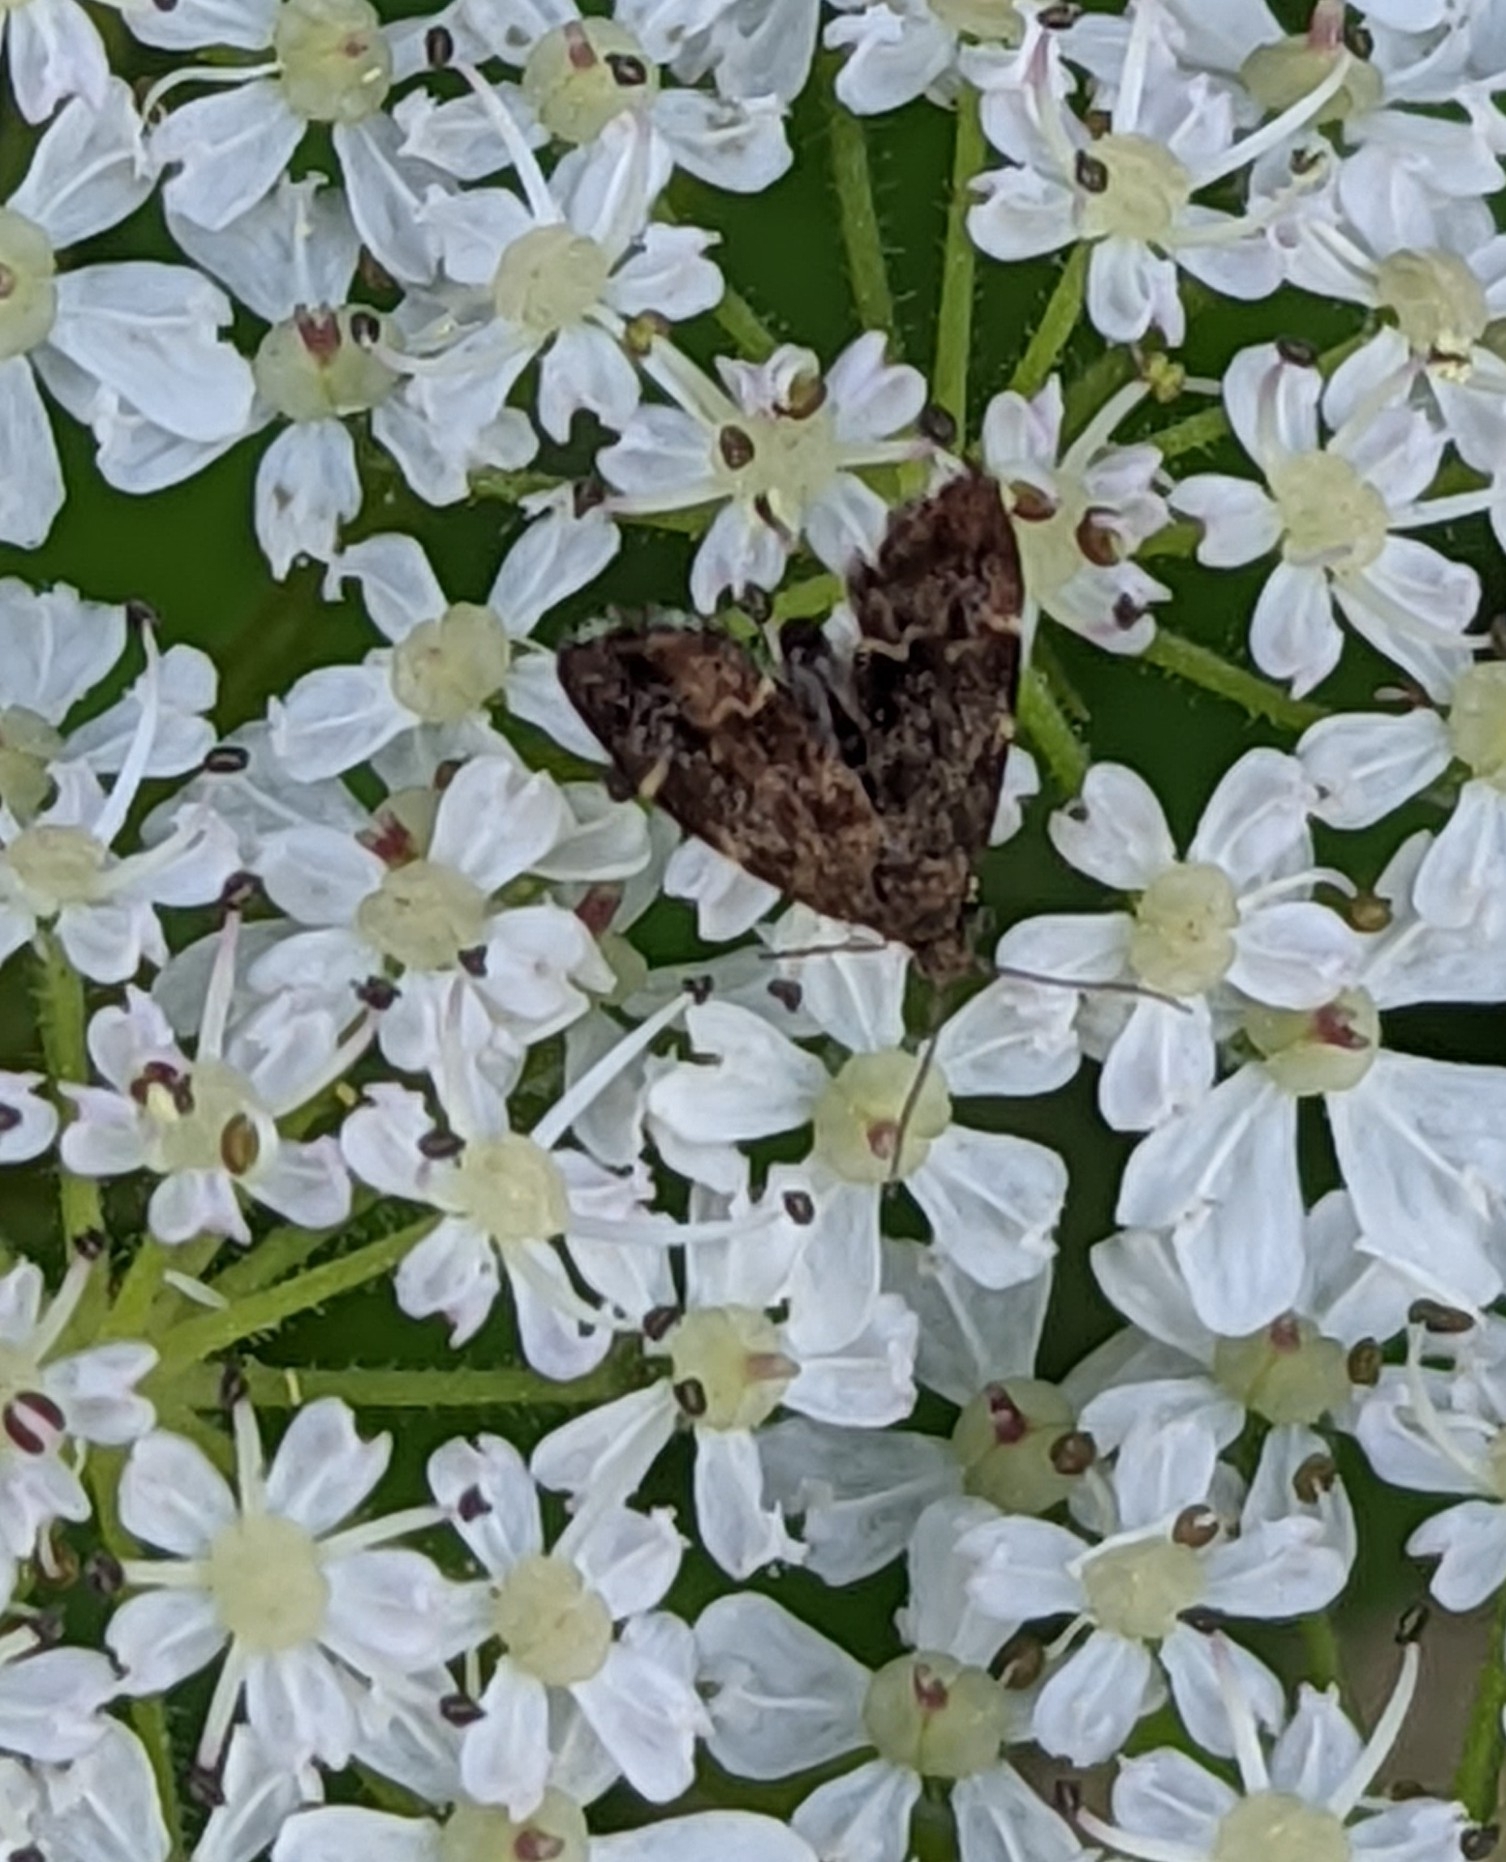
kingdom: Animalia
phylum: Arthropoda
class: Insecta
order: Lepidoptera
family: Choreutidae
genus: Anthophila
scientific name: Anthophila fabriciana
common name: Nettle-tap
